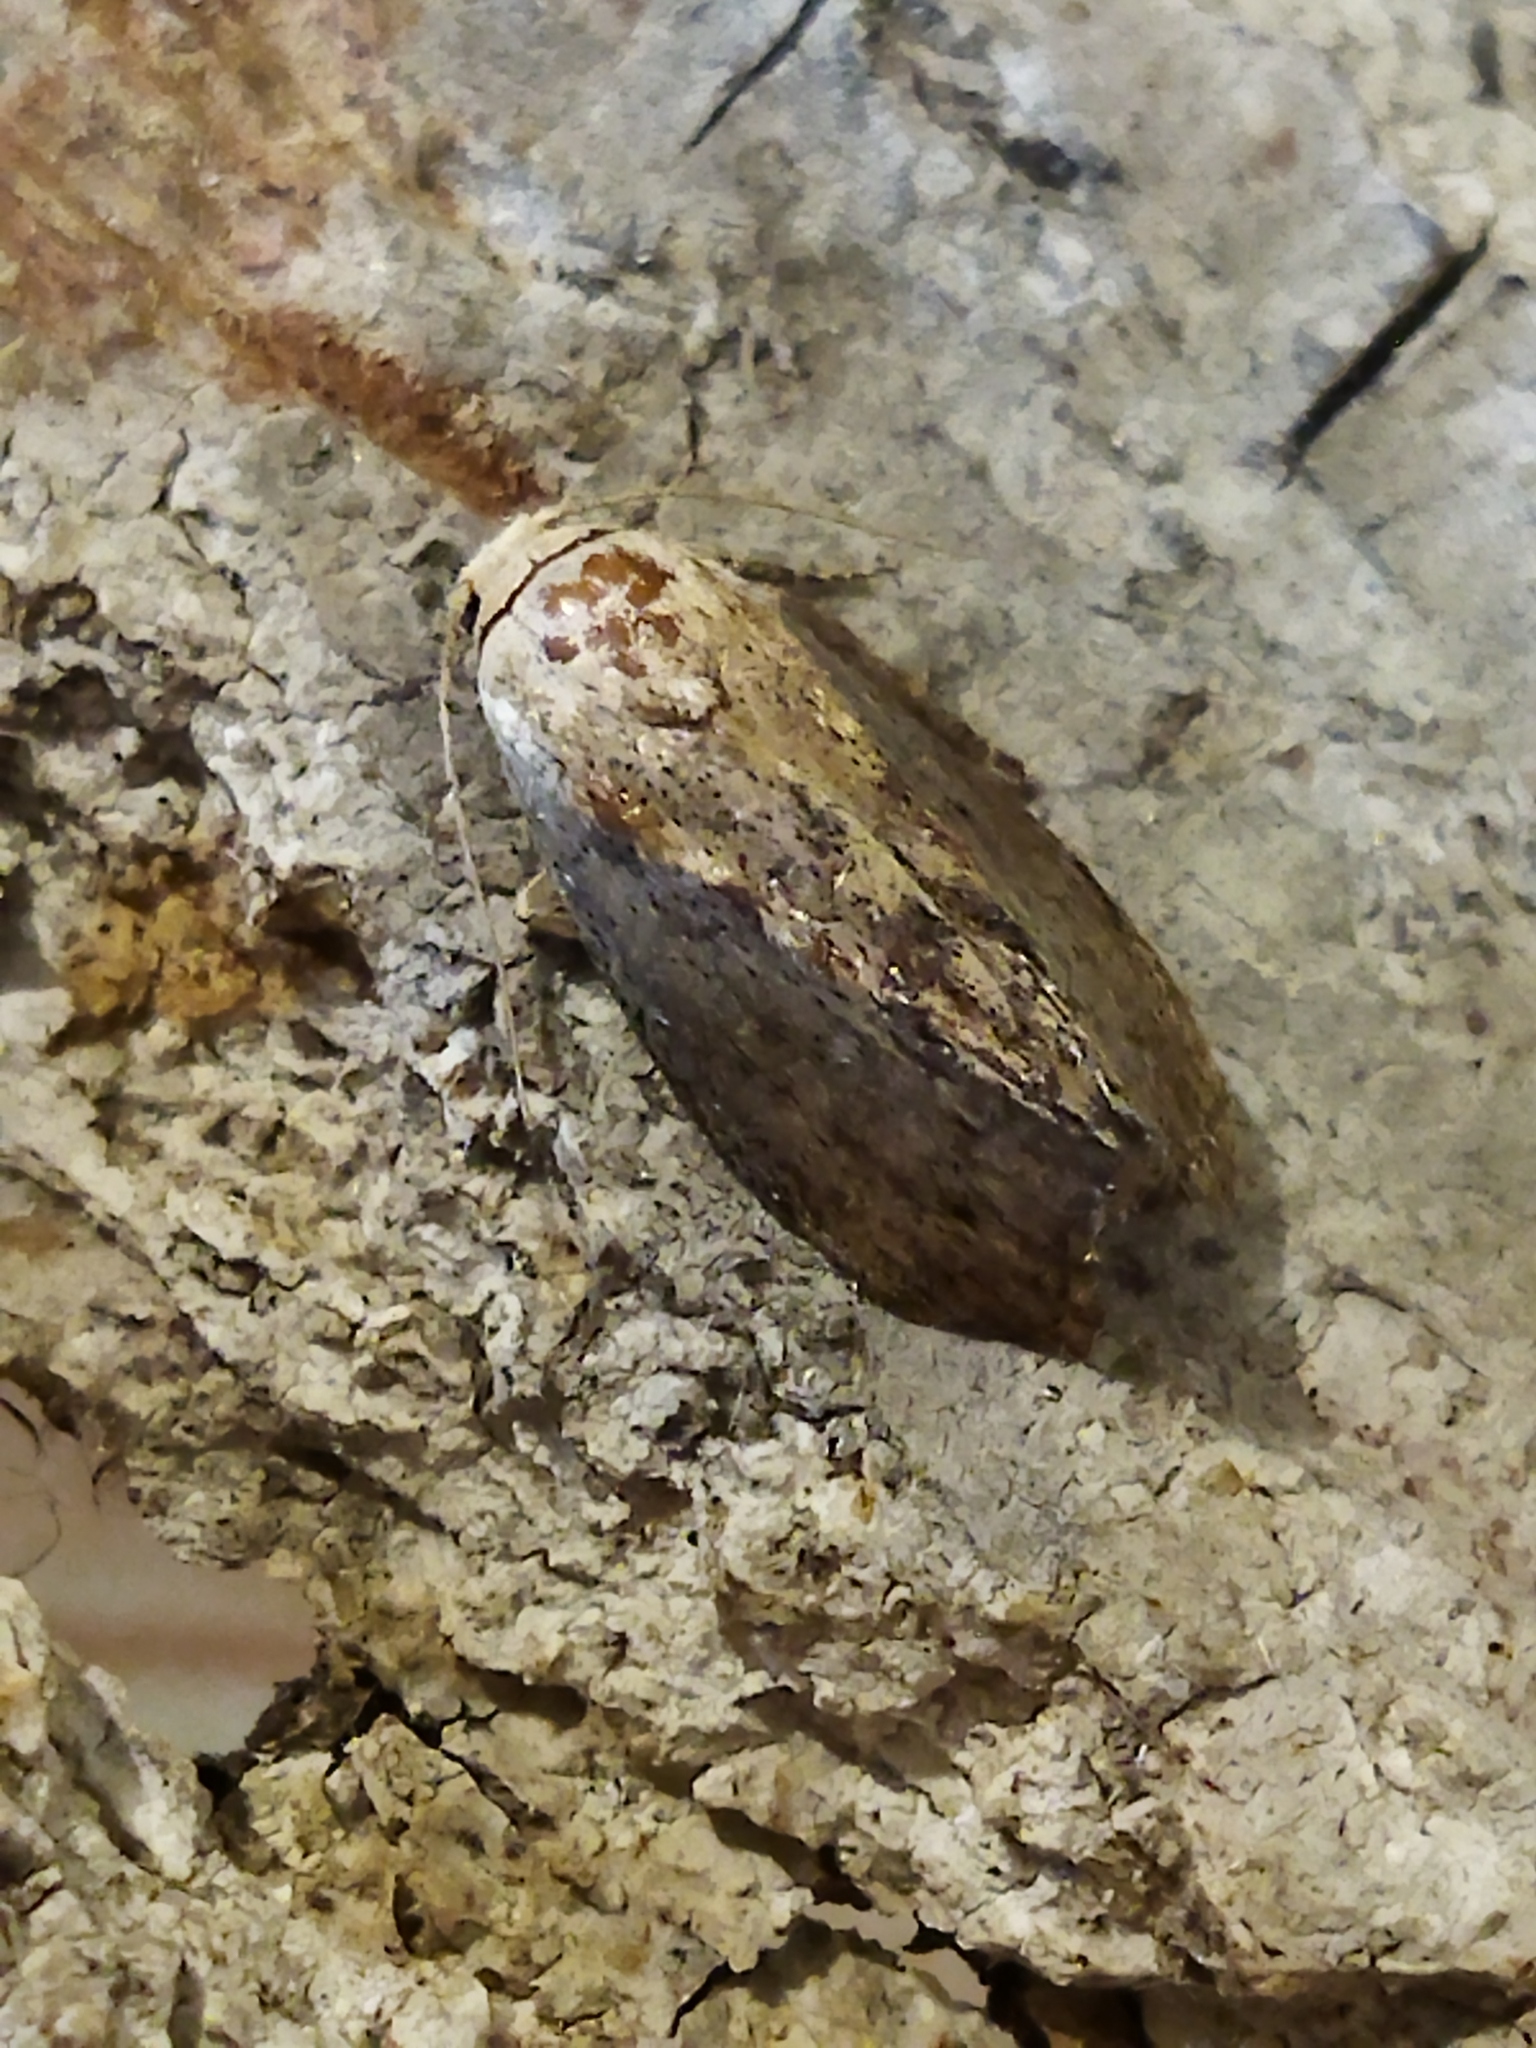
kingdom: Animalia
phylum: Arthropoda
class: Insecta
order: Lepidoptera
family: Pyralidae
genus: Galleria
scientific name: Galleria mellonella
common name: Greater wax moth
